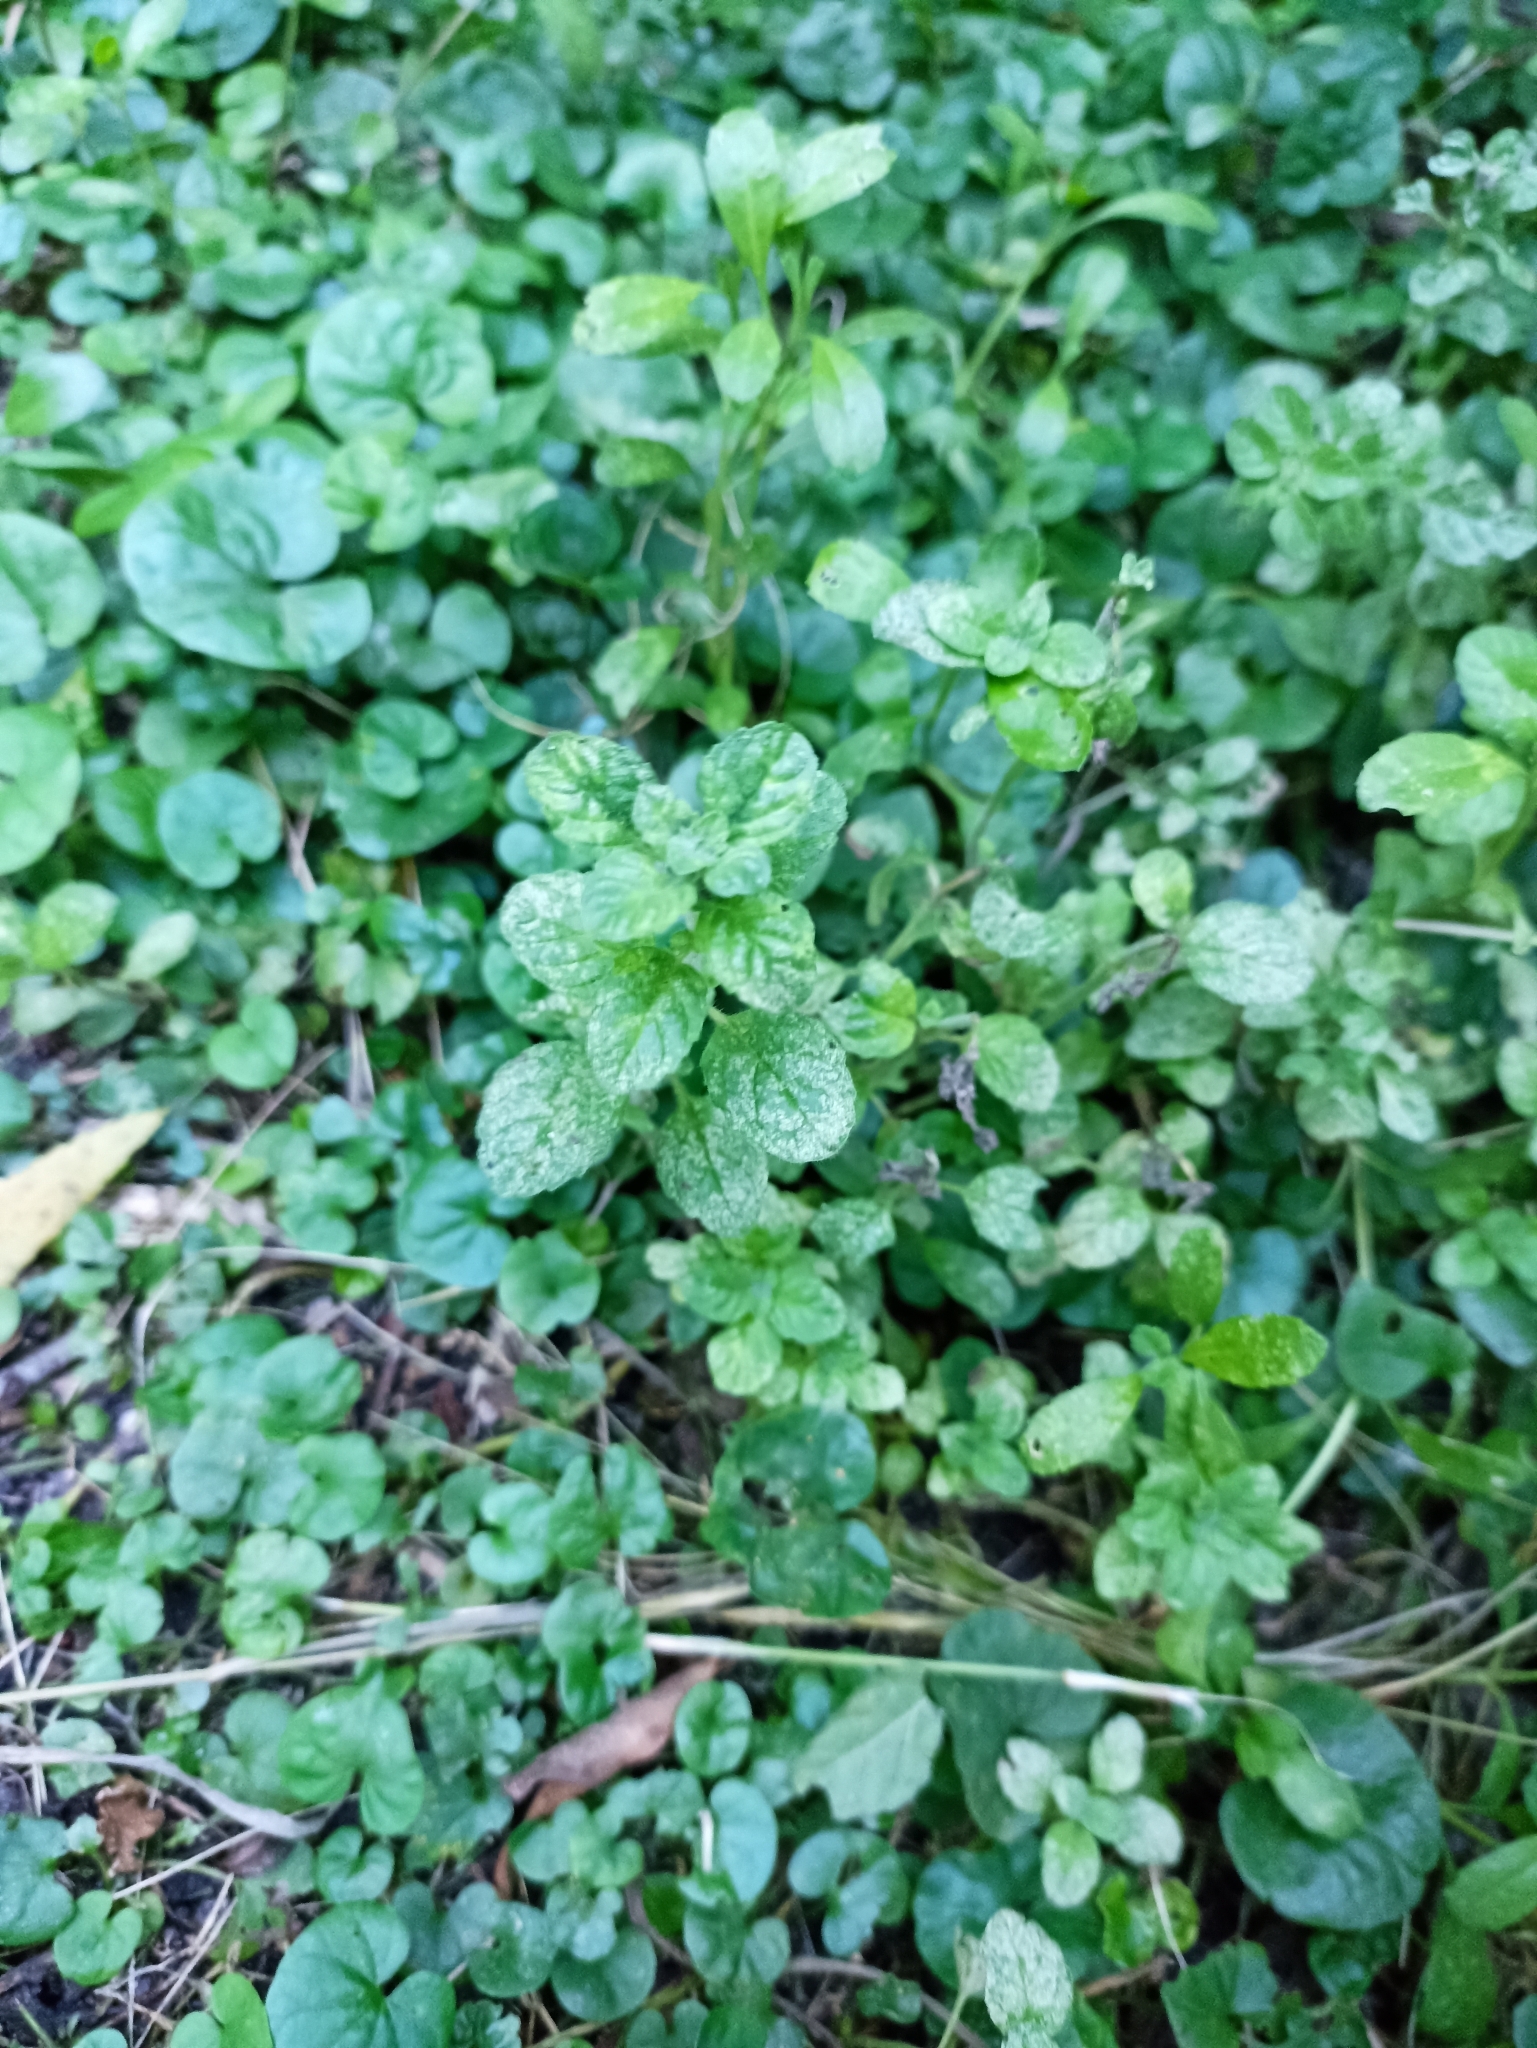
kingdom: Plantae
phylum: Tracheophyta
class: Magnoliopsida
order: Lamiales
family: Lamiaceae
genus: Mentha
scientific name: Mentha pulegium
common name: Pennyroyal
